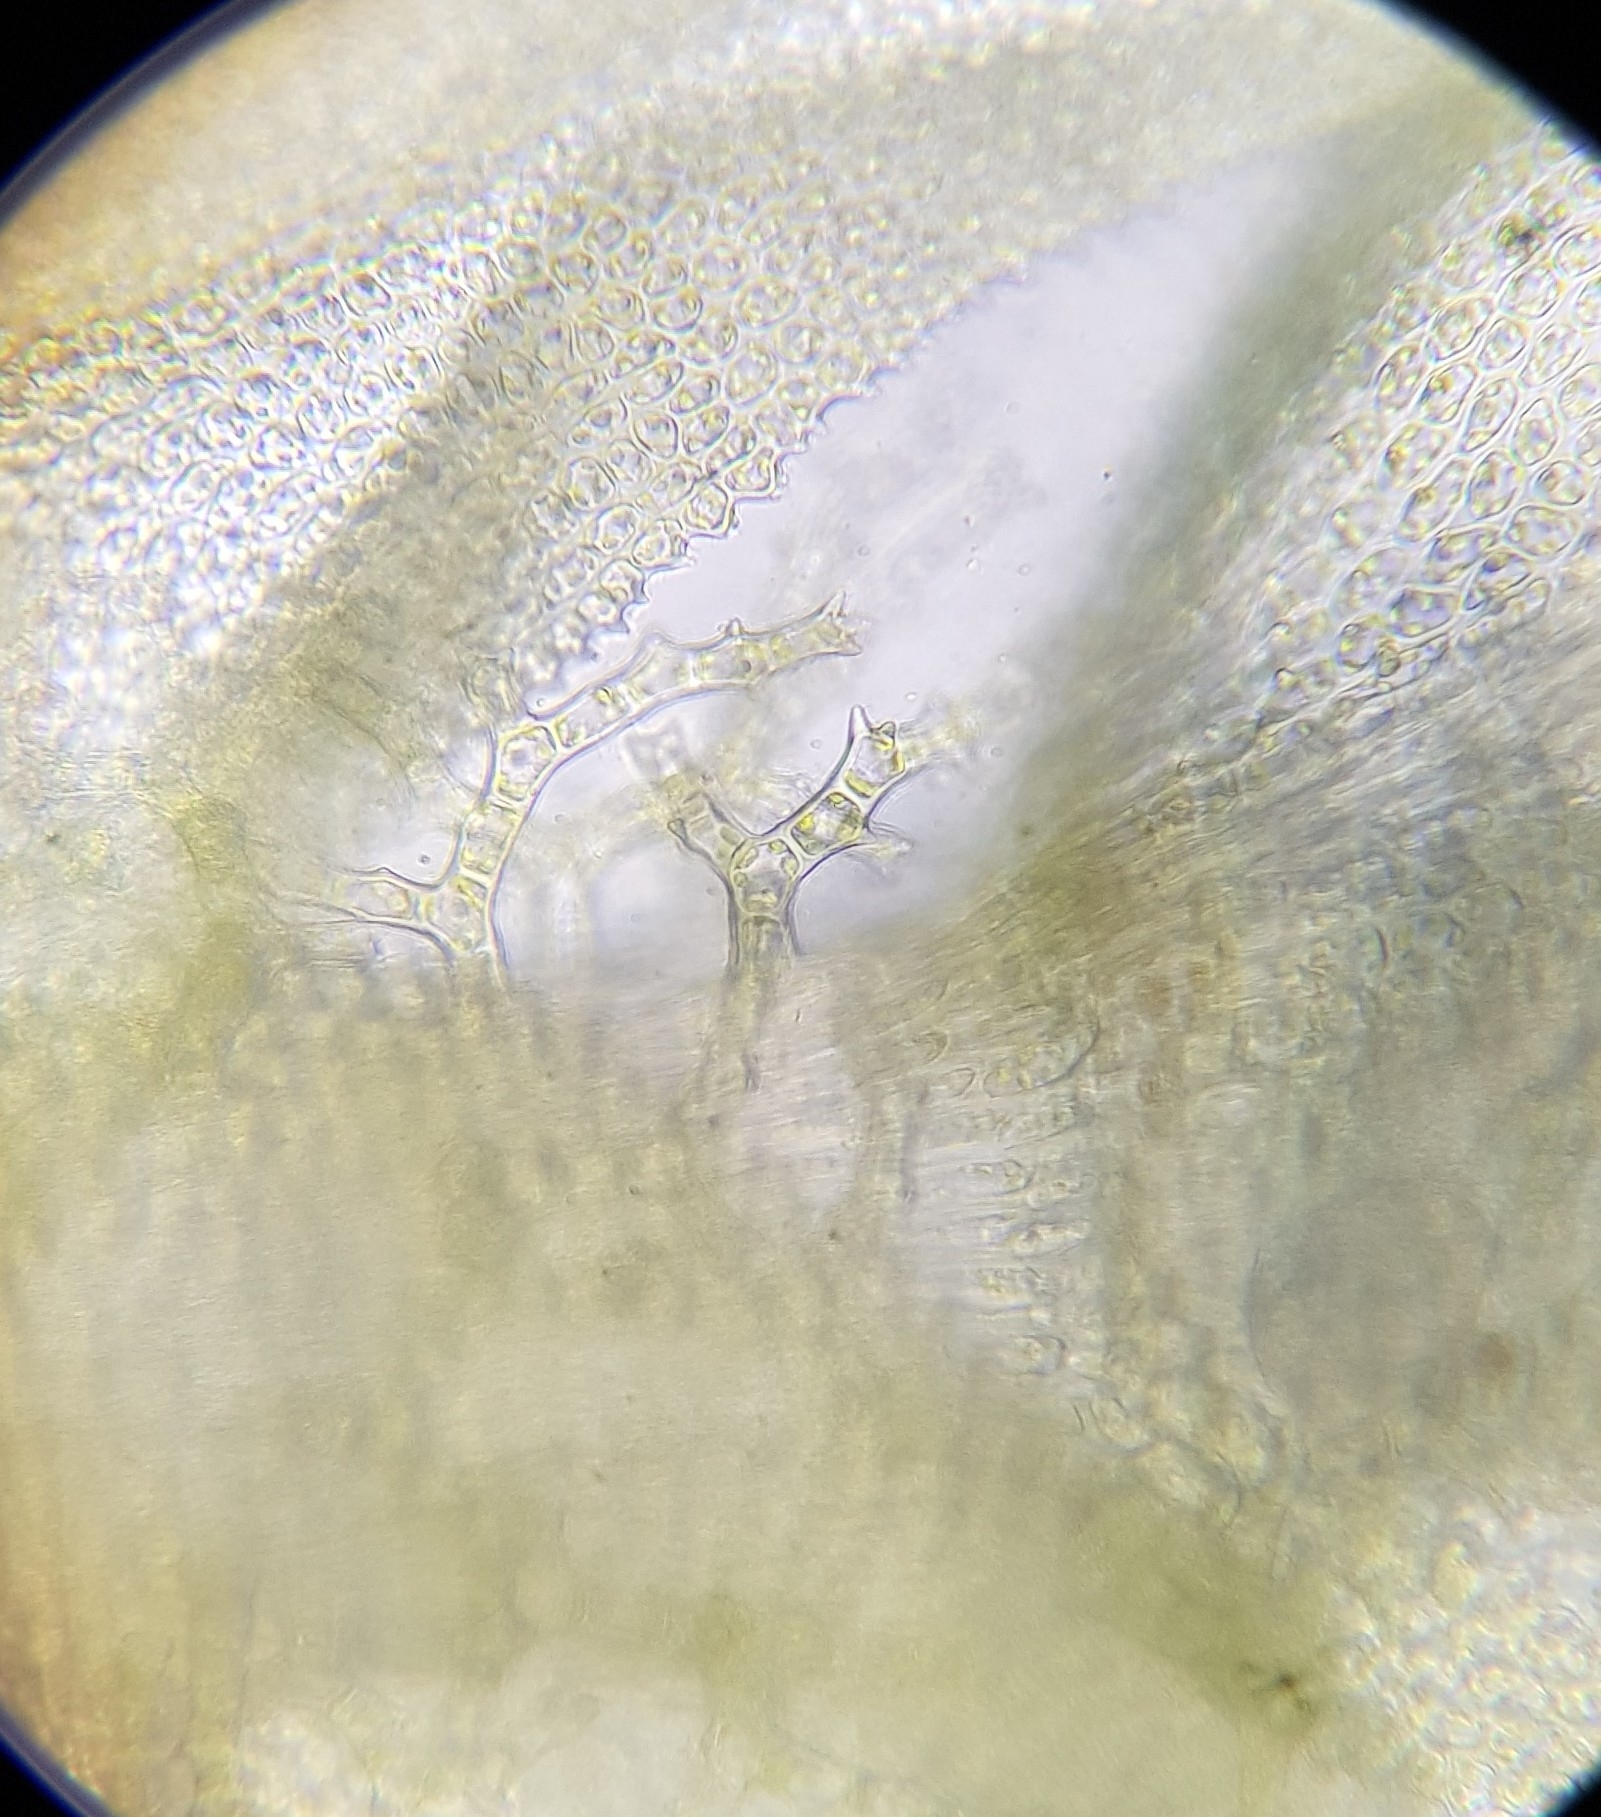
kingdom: Plantae
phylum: Bryophyta
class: Bryopsida
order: Hypnales
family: Thuidiaceae
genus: Thuidium
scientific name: Thuidium tamariscinum
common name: Common tamarisk-moss
